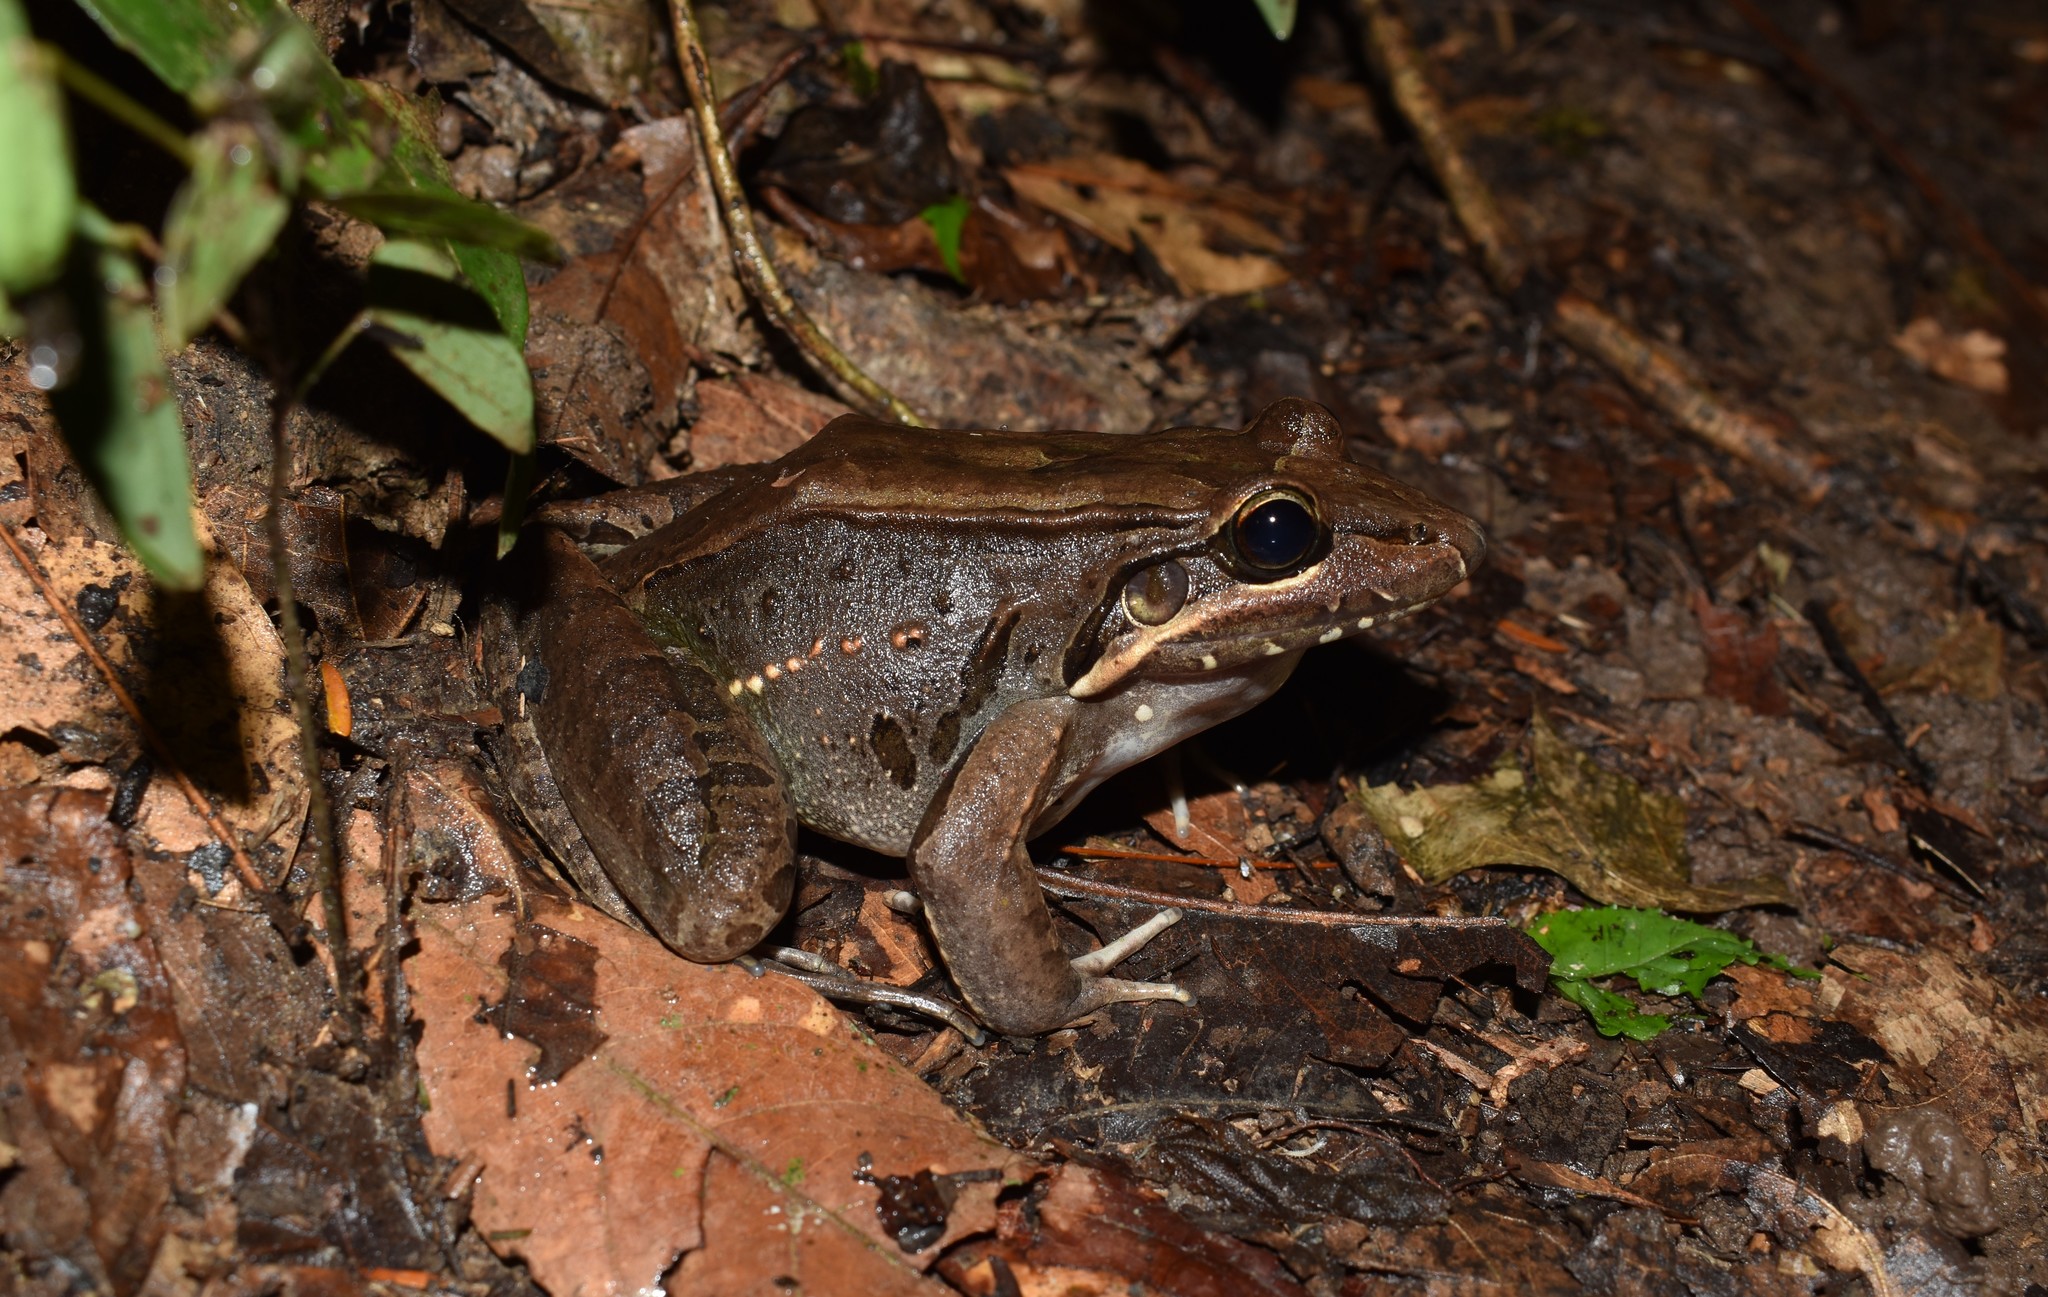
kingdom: Animalia
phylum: Chordata
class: Amphibia
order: Anura
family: Leptodactylidae
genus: Leptodactylus
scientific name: Leptodactylus bolivianus
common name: Bolivian white-lipped frog
